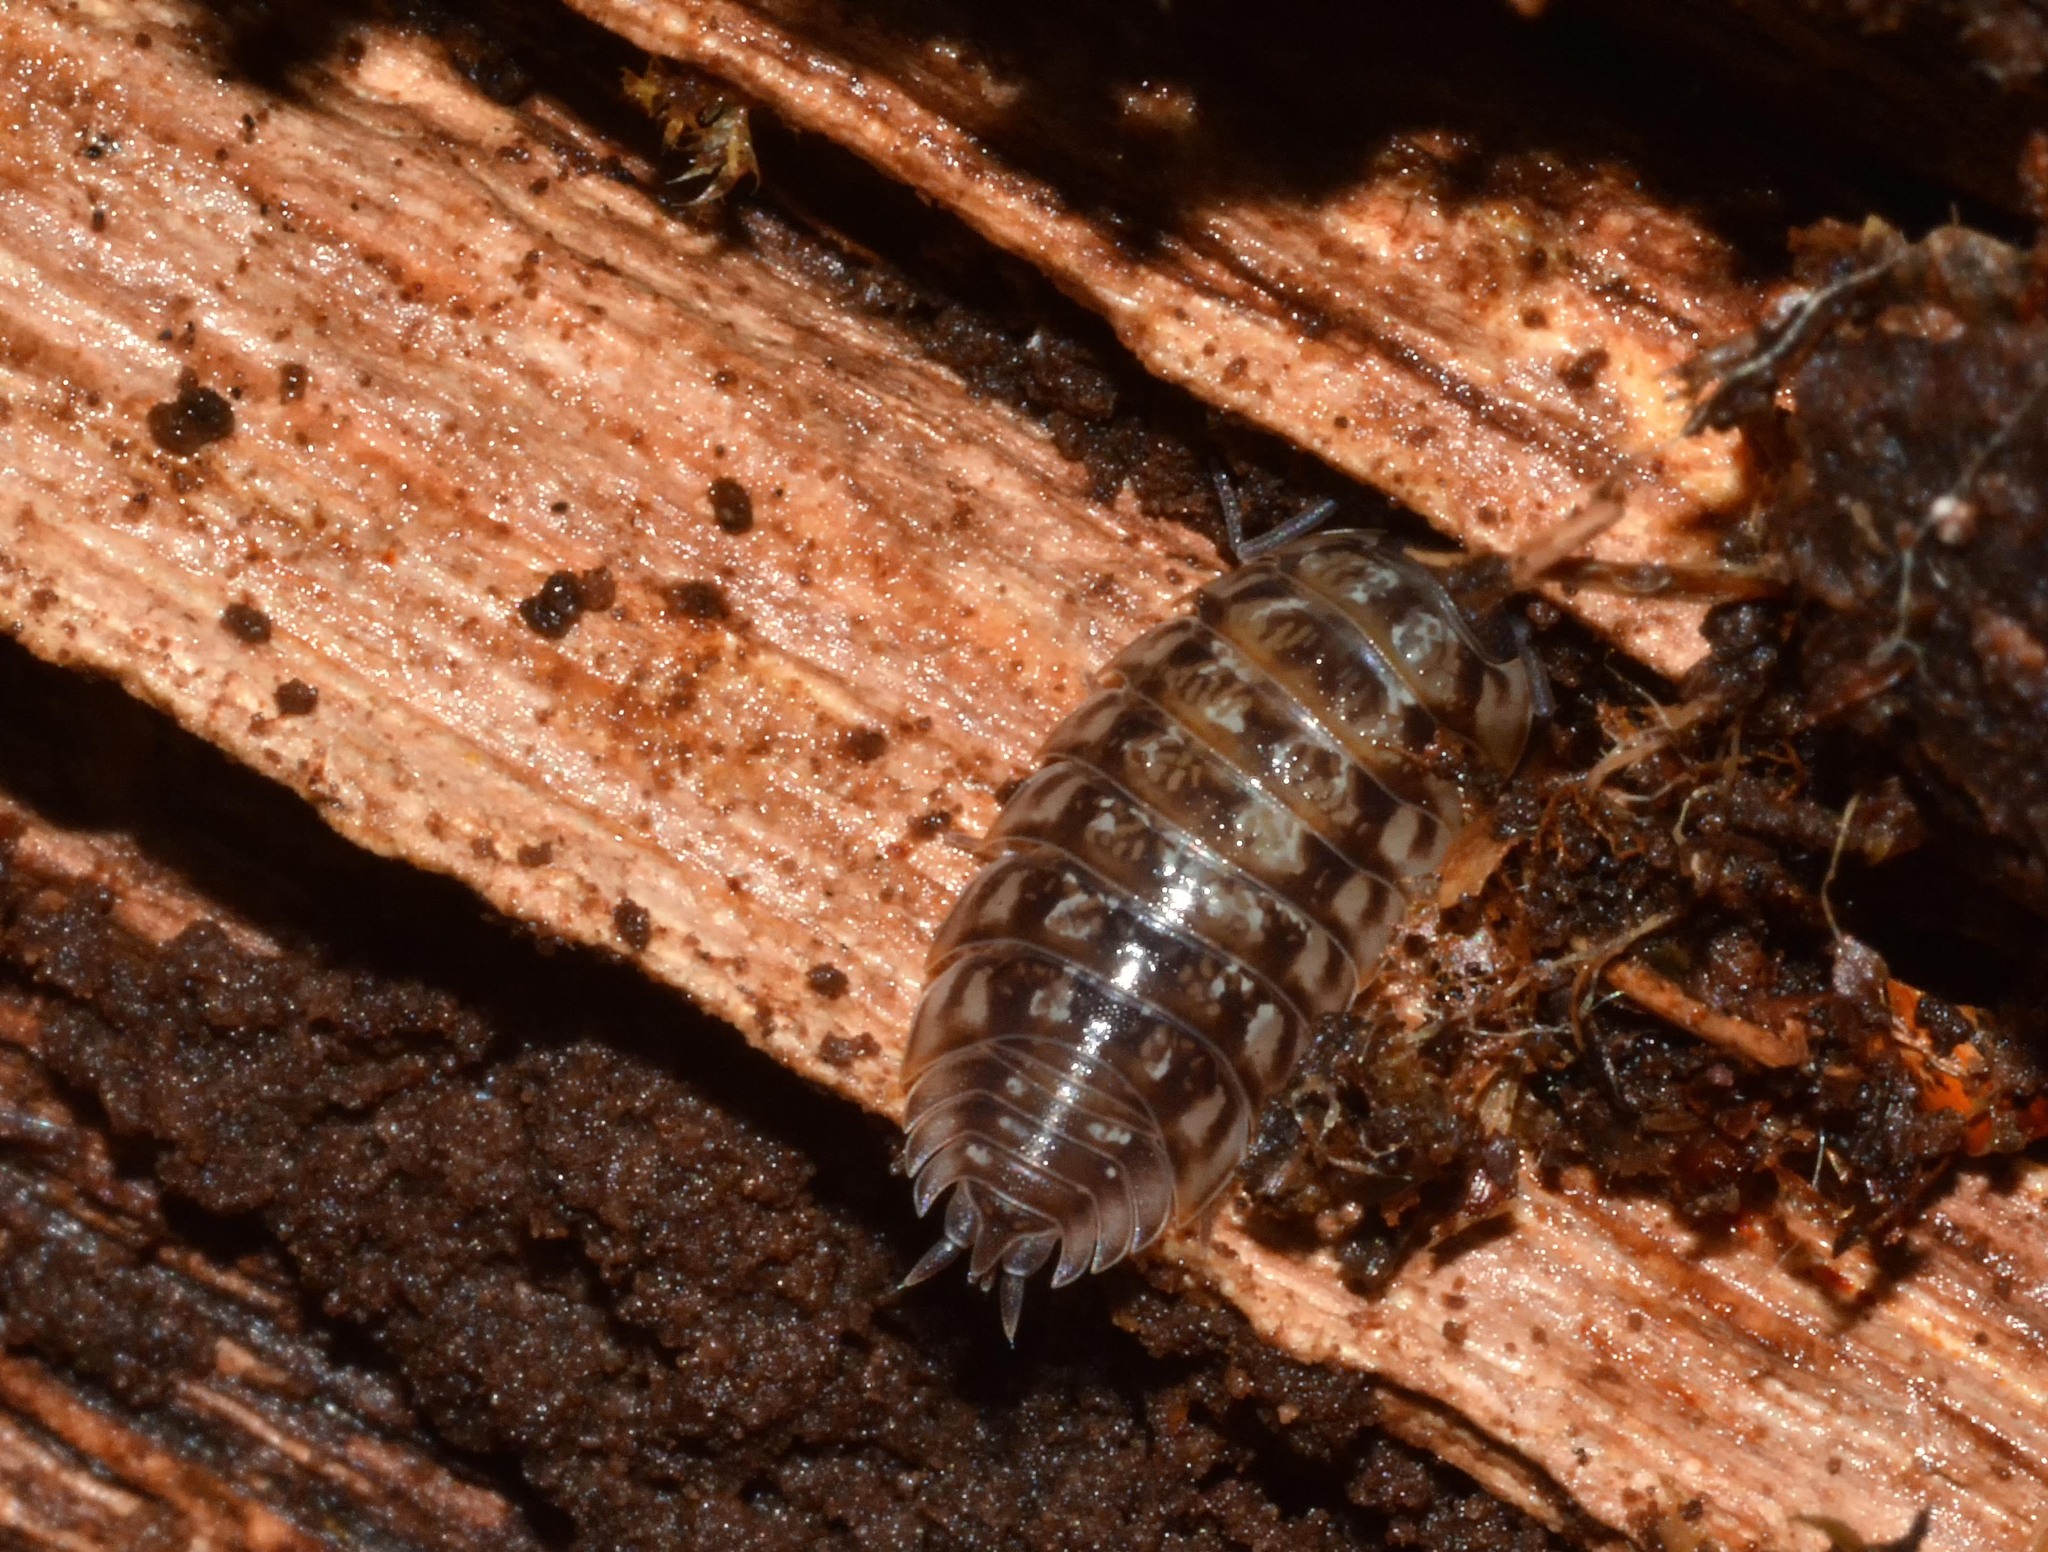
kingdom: Animalia
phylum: Arthropoda
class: Malacostraca
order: Isopoda
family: Oniscidae
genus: Oniscus
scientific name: Oniscus asellus
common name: Common shiny woodlouse
